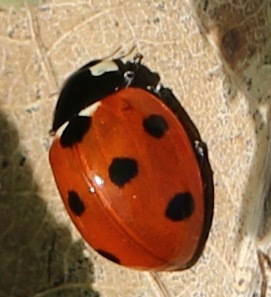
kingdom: Animalia
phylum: Arthropoda
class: Insecta
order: Coleoptera
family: Coccinellidae
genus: Coccinella
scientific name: Coccinella septempunctata
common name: Sevenspotted lady beetle
